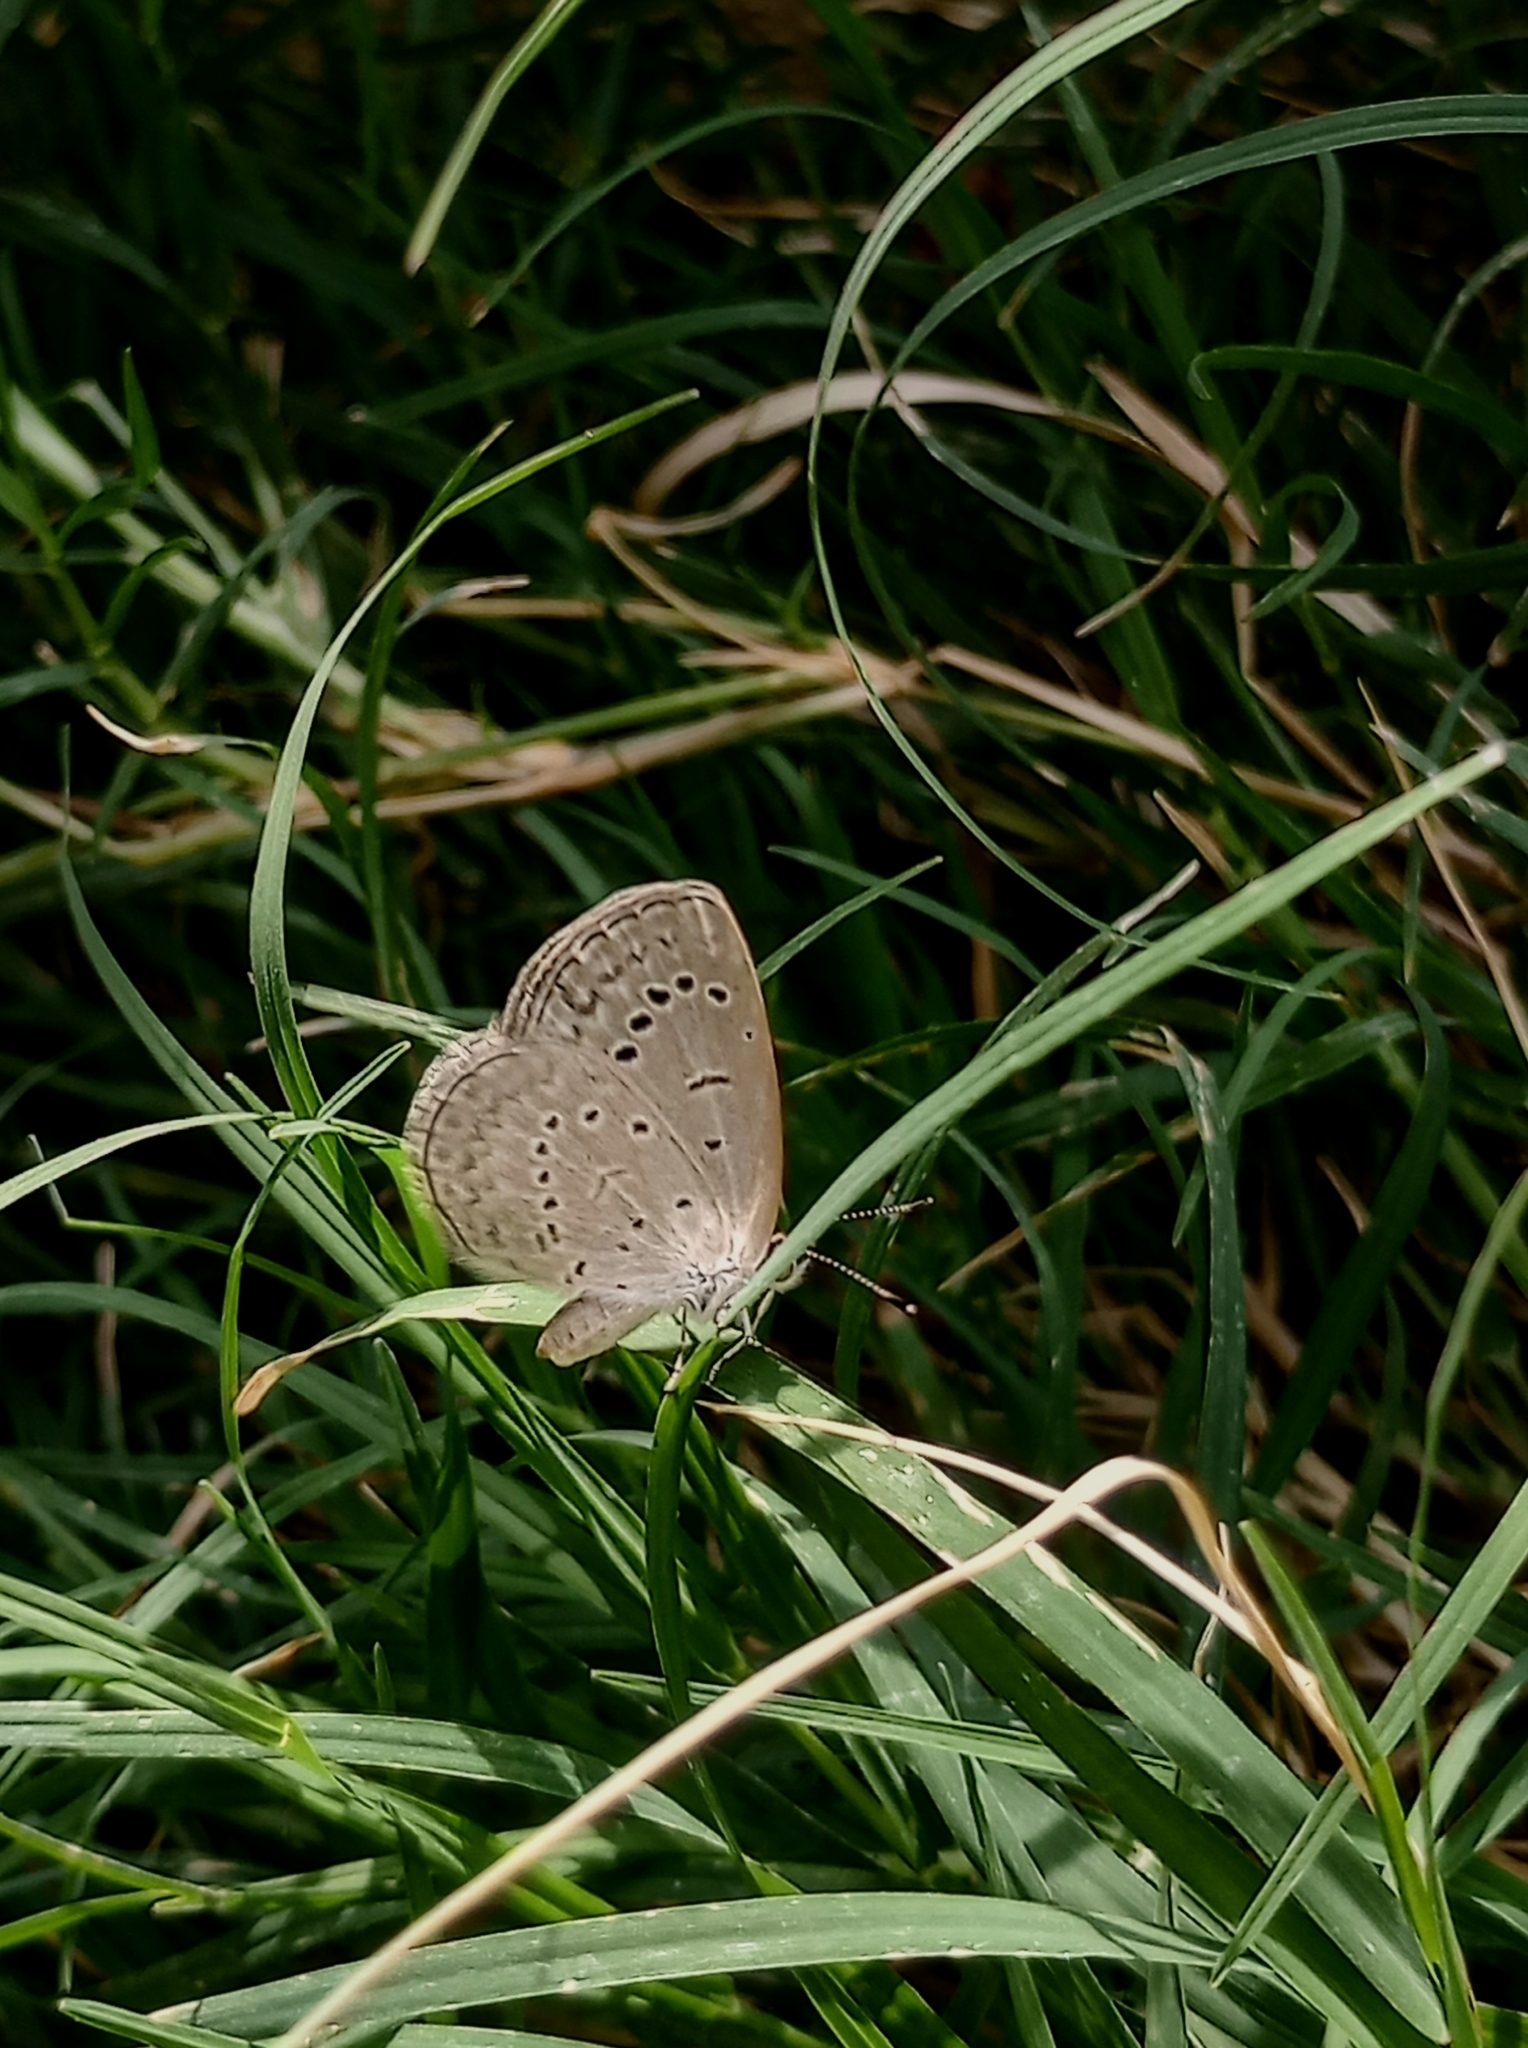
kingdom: Animalia
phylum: Arthropoda
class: Insecta
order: Lepidoptera
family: Lycaenidae
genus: Pseudozizeeria
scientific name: Pseudozizeeria maha
